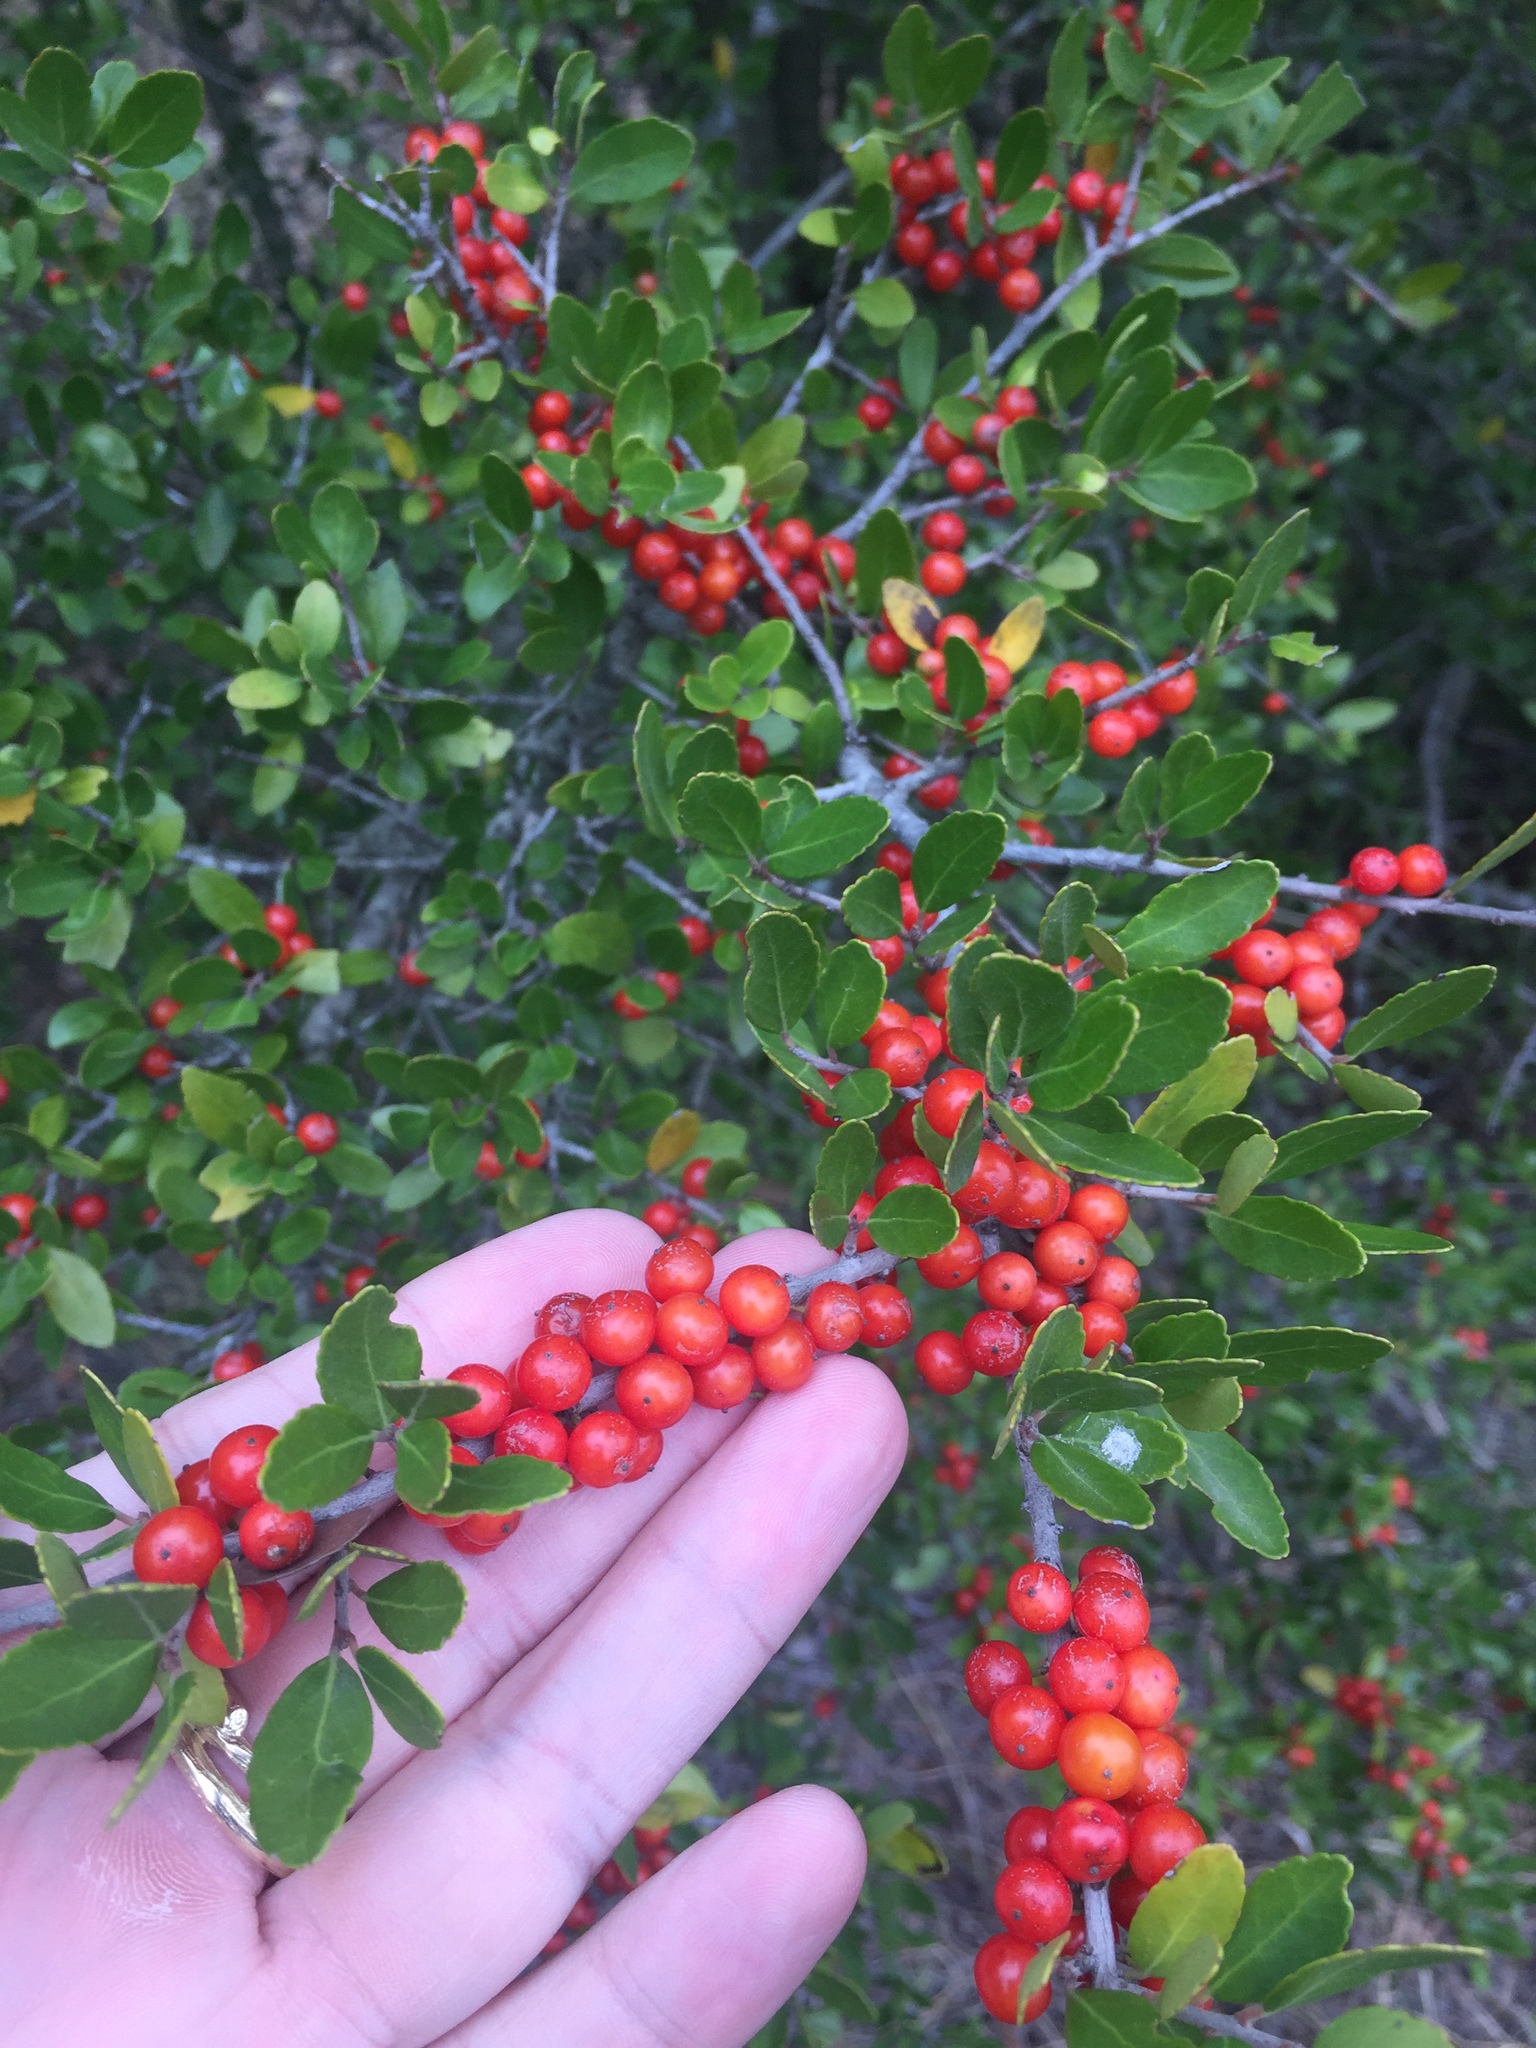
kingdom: Plantae
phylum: Tracheophyta
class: Magnoliopsida
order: Aquifoliales
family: Aquifoliaceae
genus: Ilex
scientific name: Ilex vomitoria
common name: Yaupon holly
